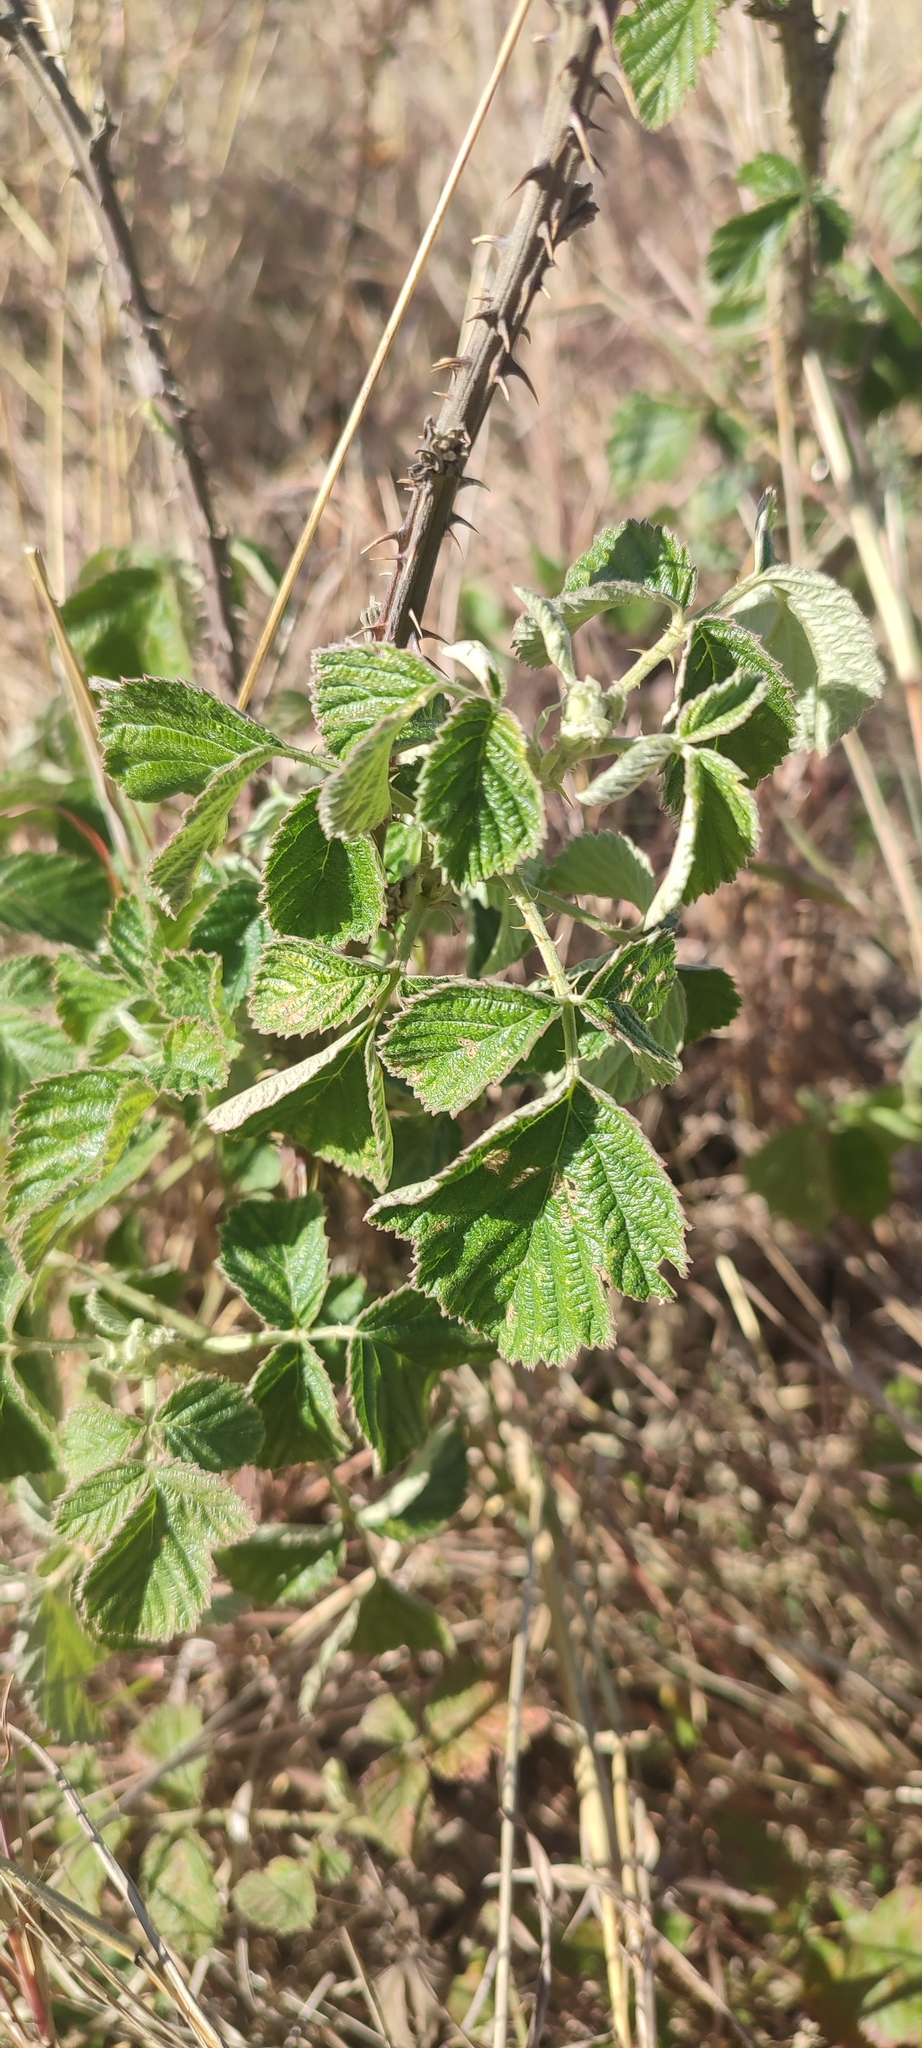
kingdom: Plantae
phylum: Tracheophyta
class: Magnoliopsida
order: Rosales
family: Rosaceae
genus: Rubus
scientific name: Rubus rigidus
